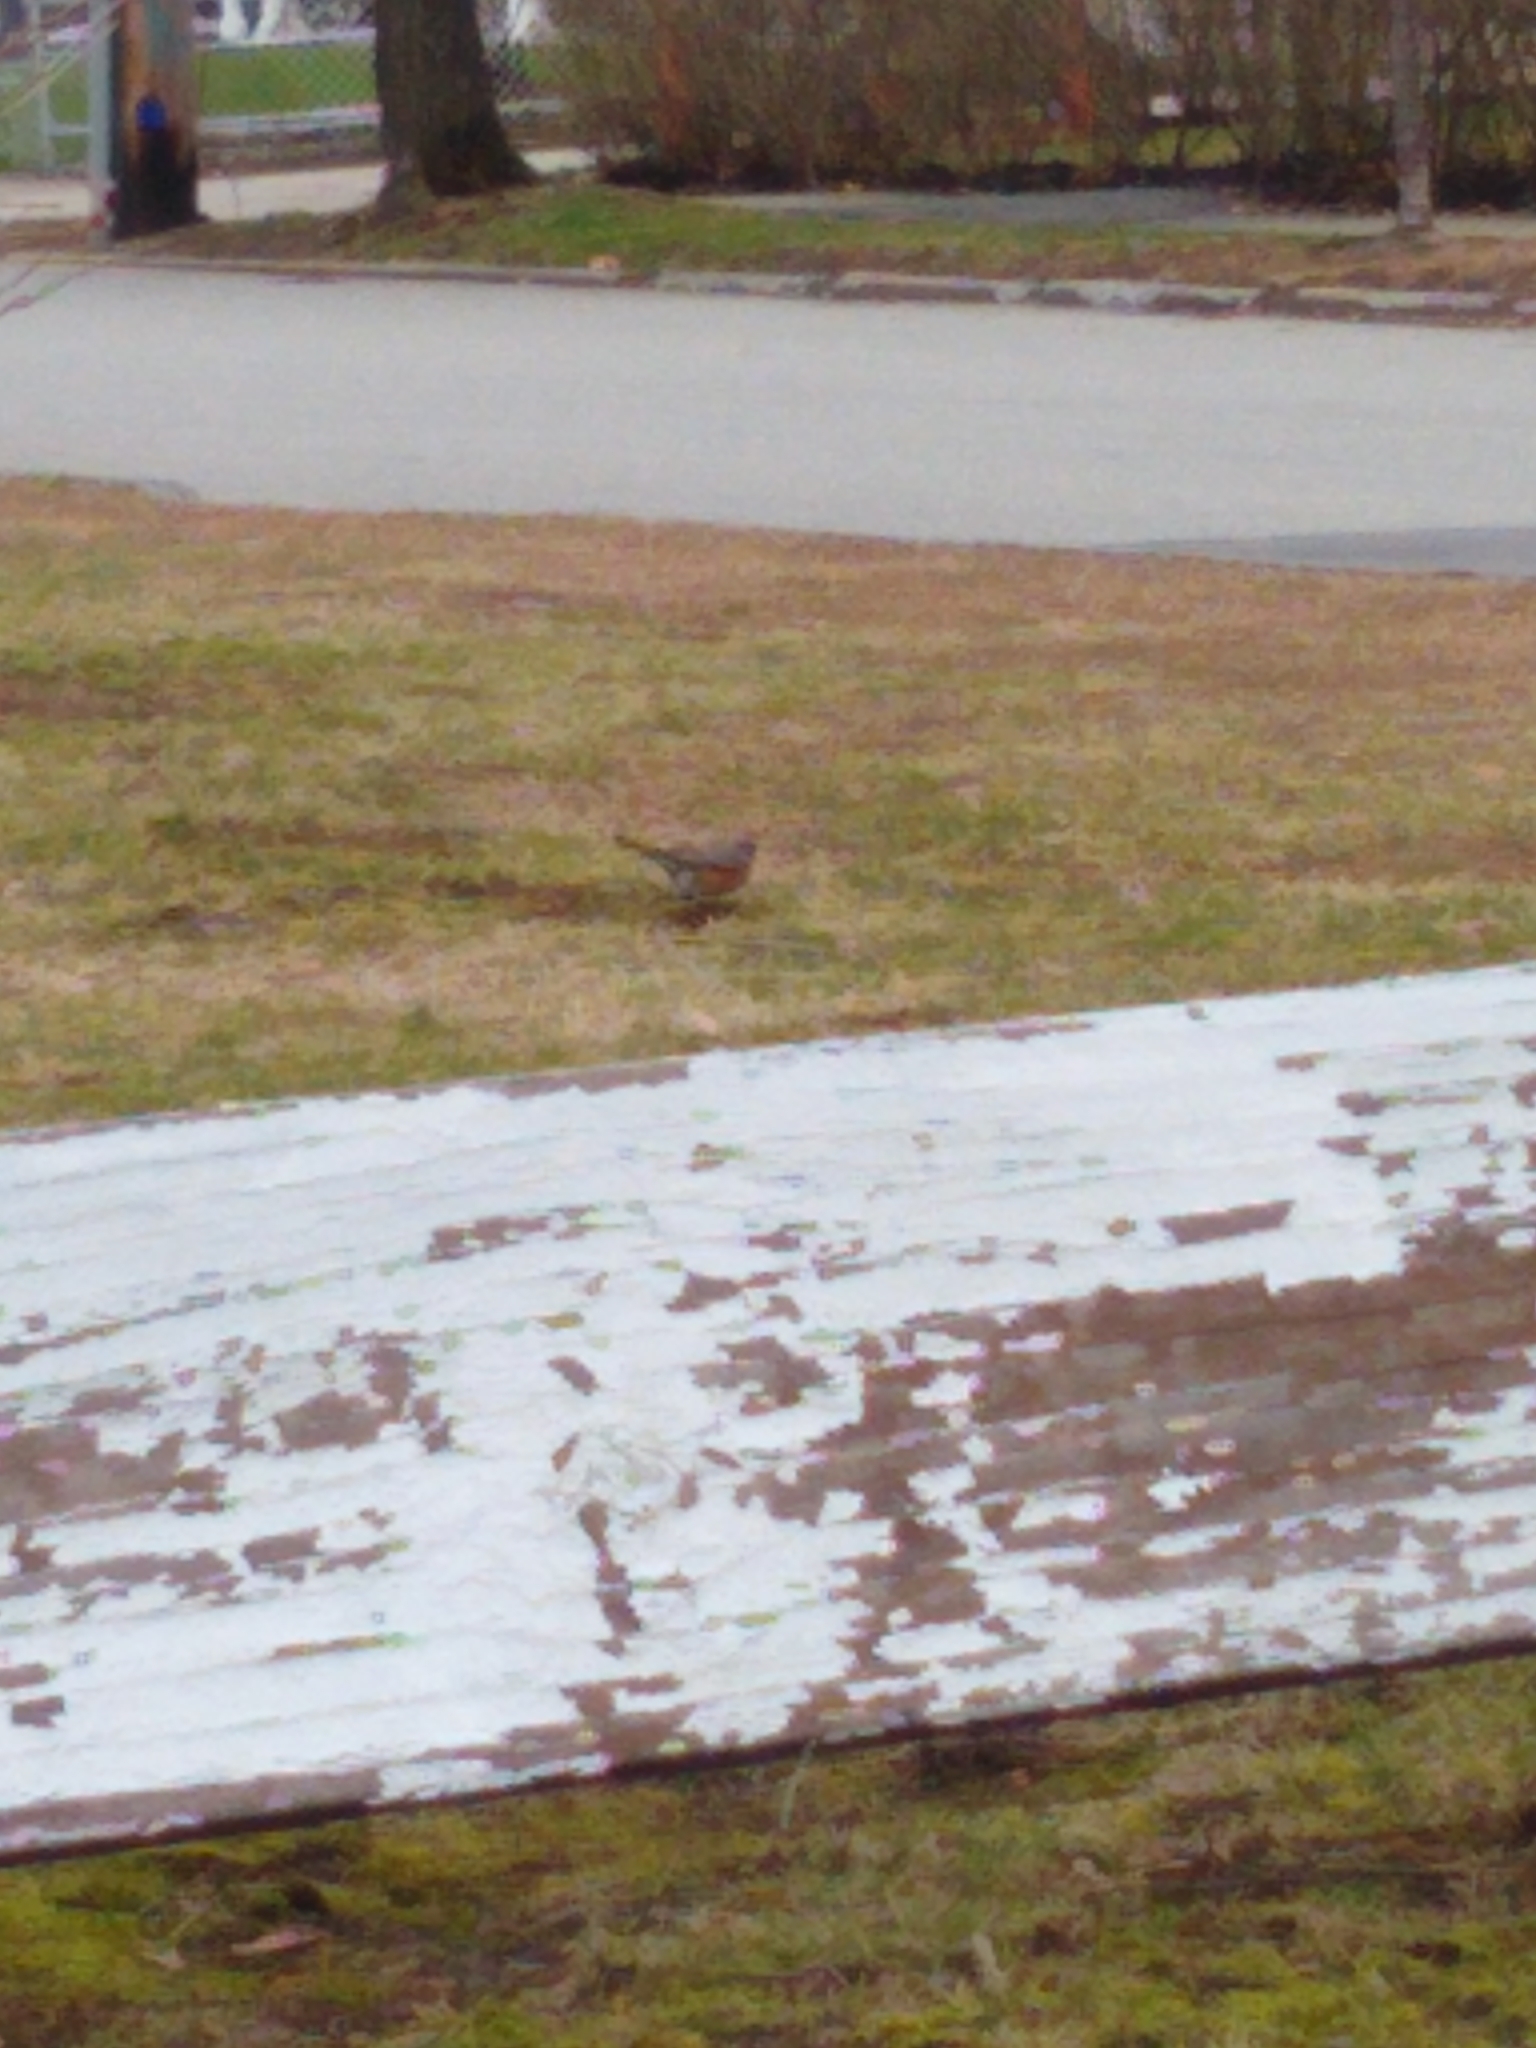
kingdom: Animalia
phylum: Chordata
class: Aves
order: Passeriformes
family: Turdidae
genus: Turdus
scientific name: Turdus migratorius
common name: American robin
